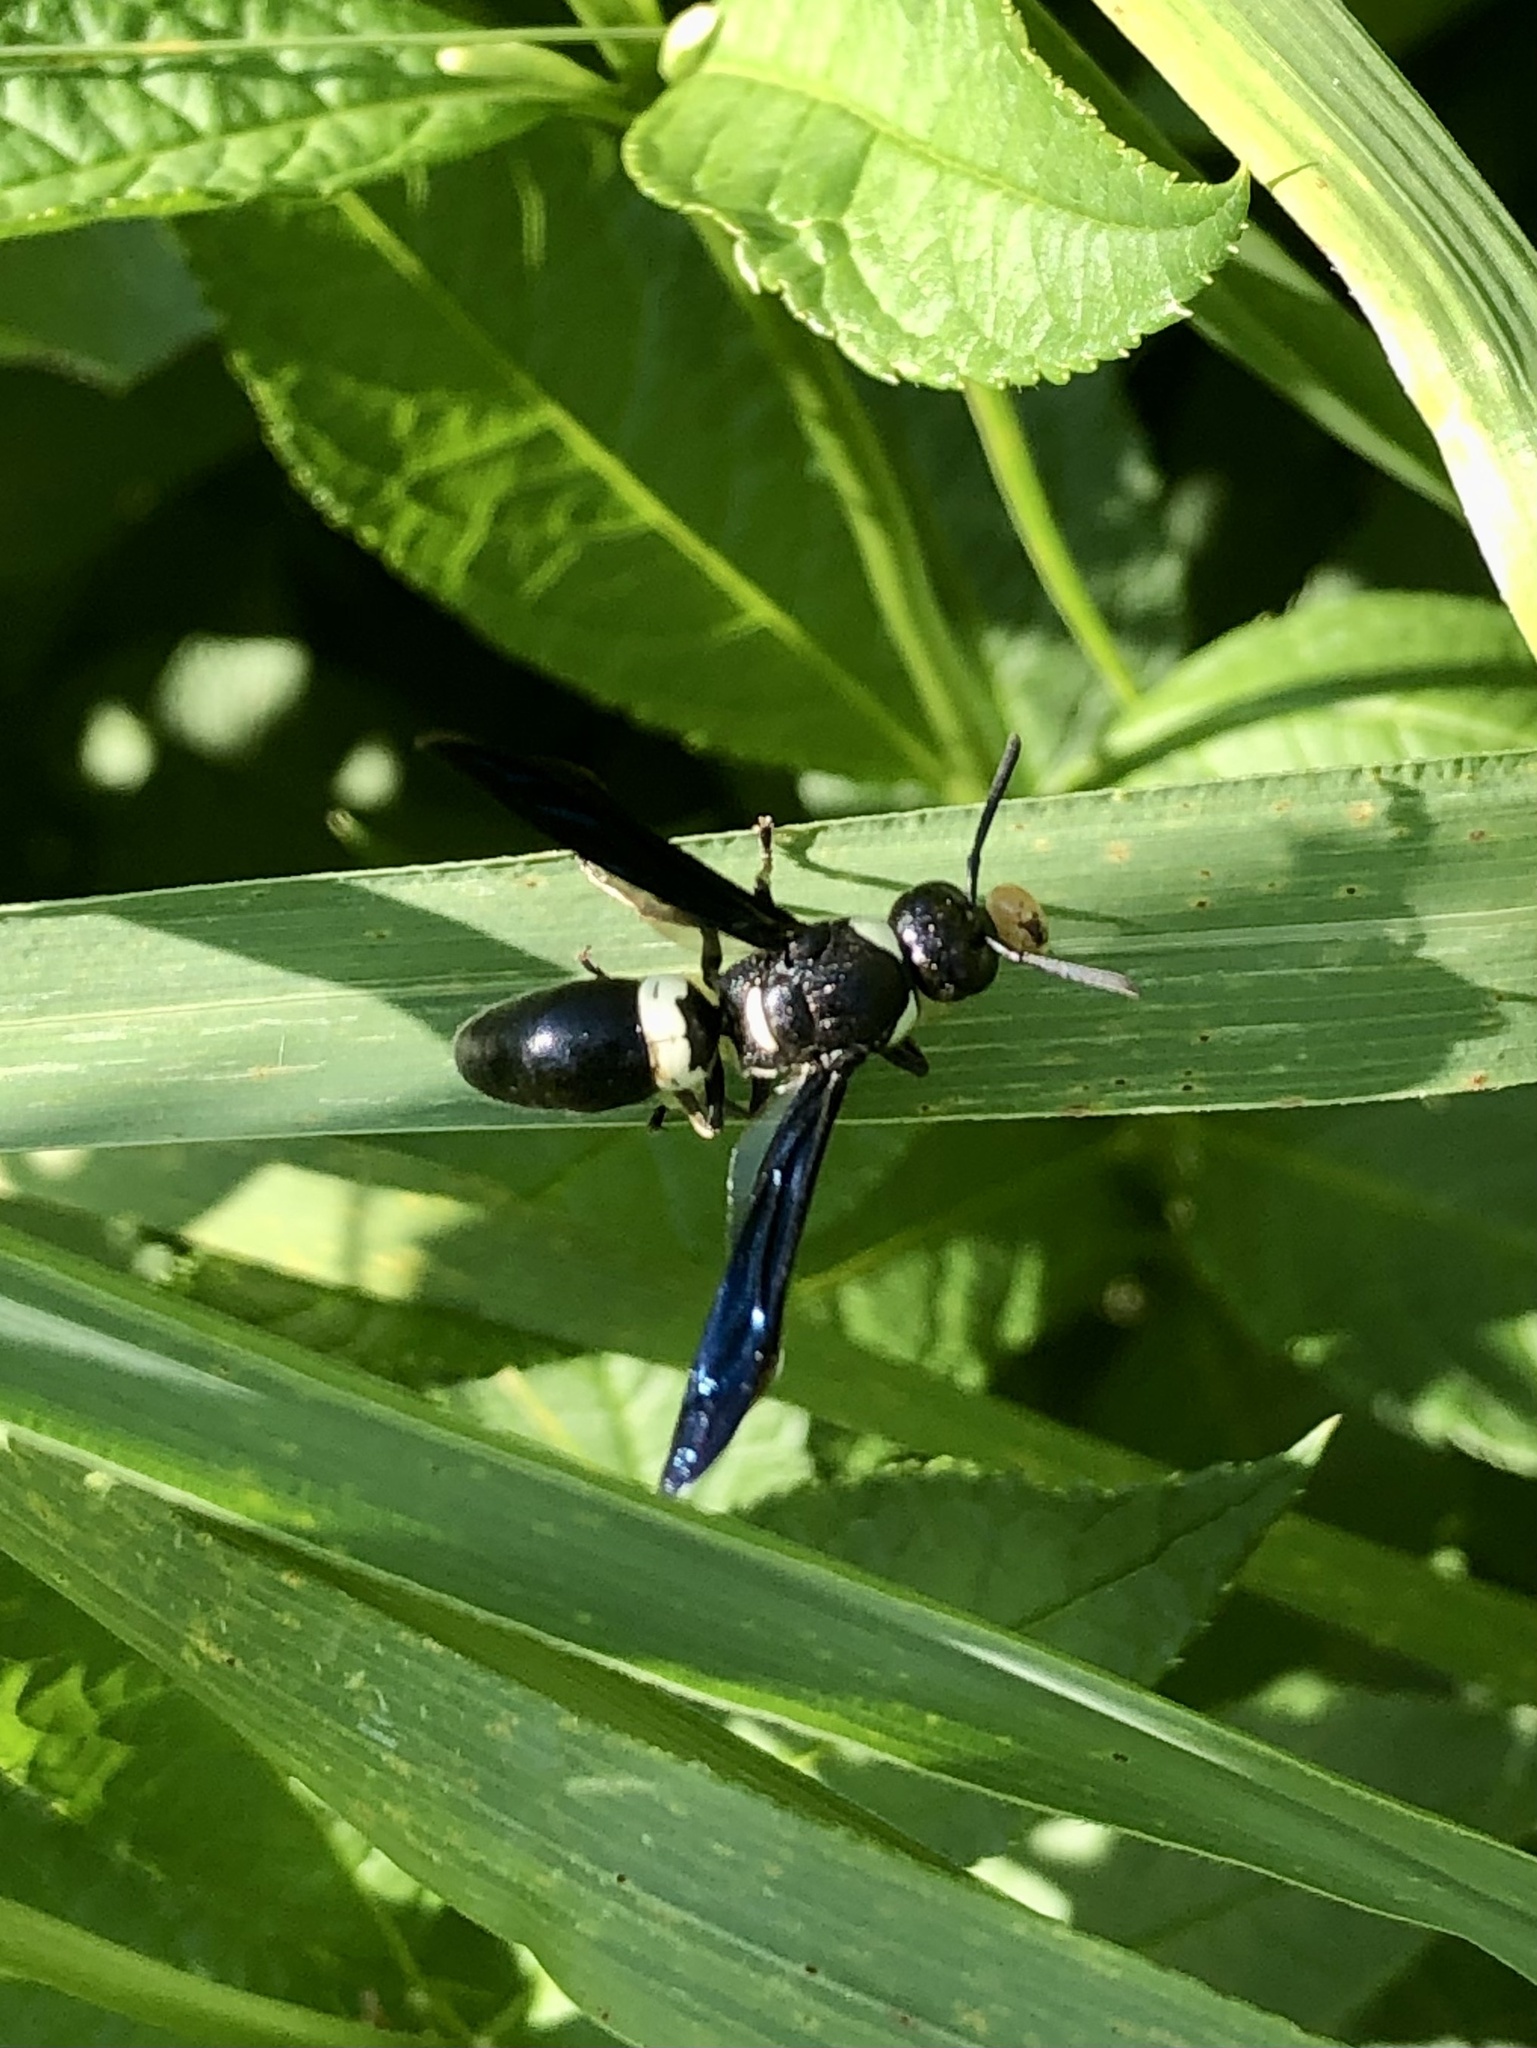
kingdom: Animalia
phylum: Arthropoda
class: Insecta
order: Hymenoptera
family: Eumenidae
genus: Monobia
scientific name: Monobia quadridens
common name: Four-toothed mason wasp
